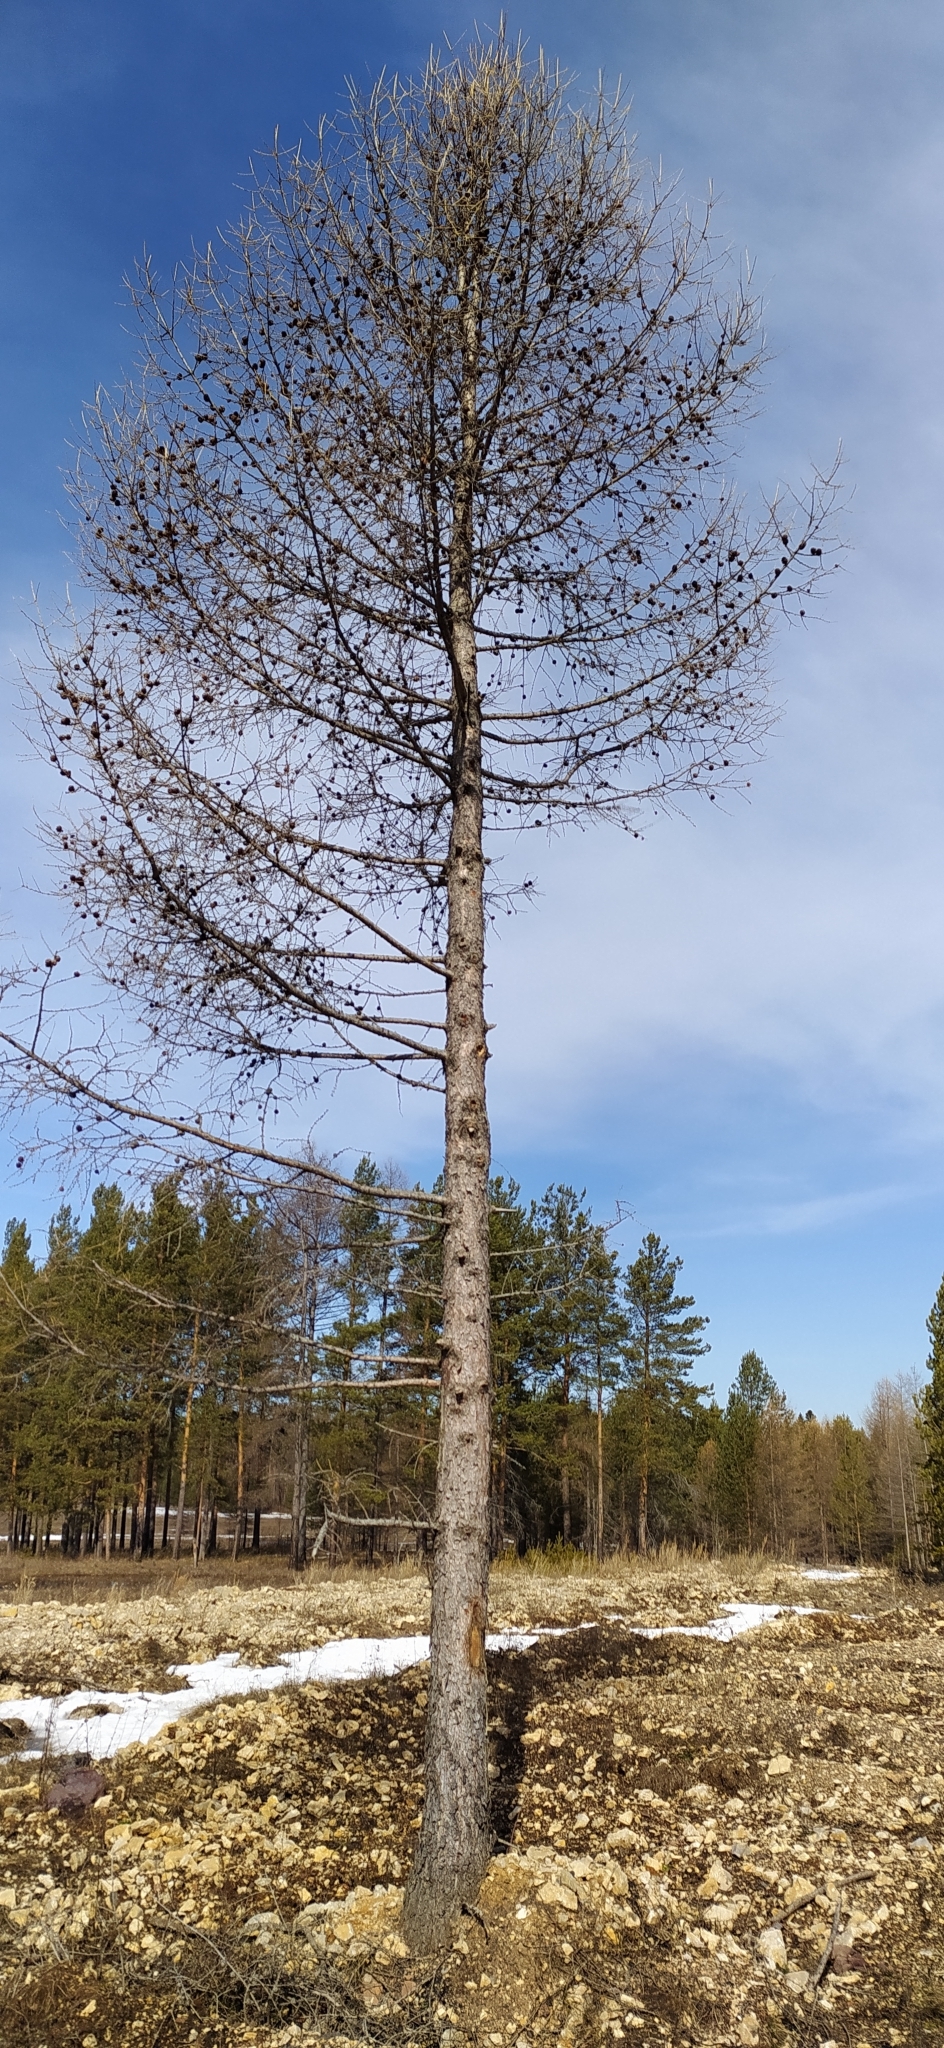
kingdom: Plantae
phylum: Tracheophyta
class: Pinopsida
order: Pinales
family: Pinaceae
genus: Larix
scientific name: Larix sibirica
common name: Siberian larch
